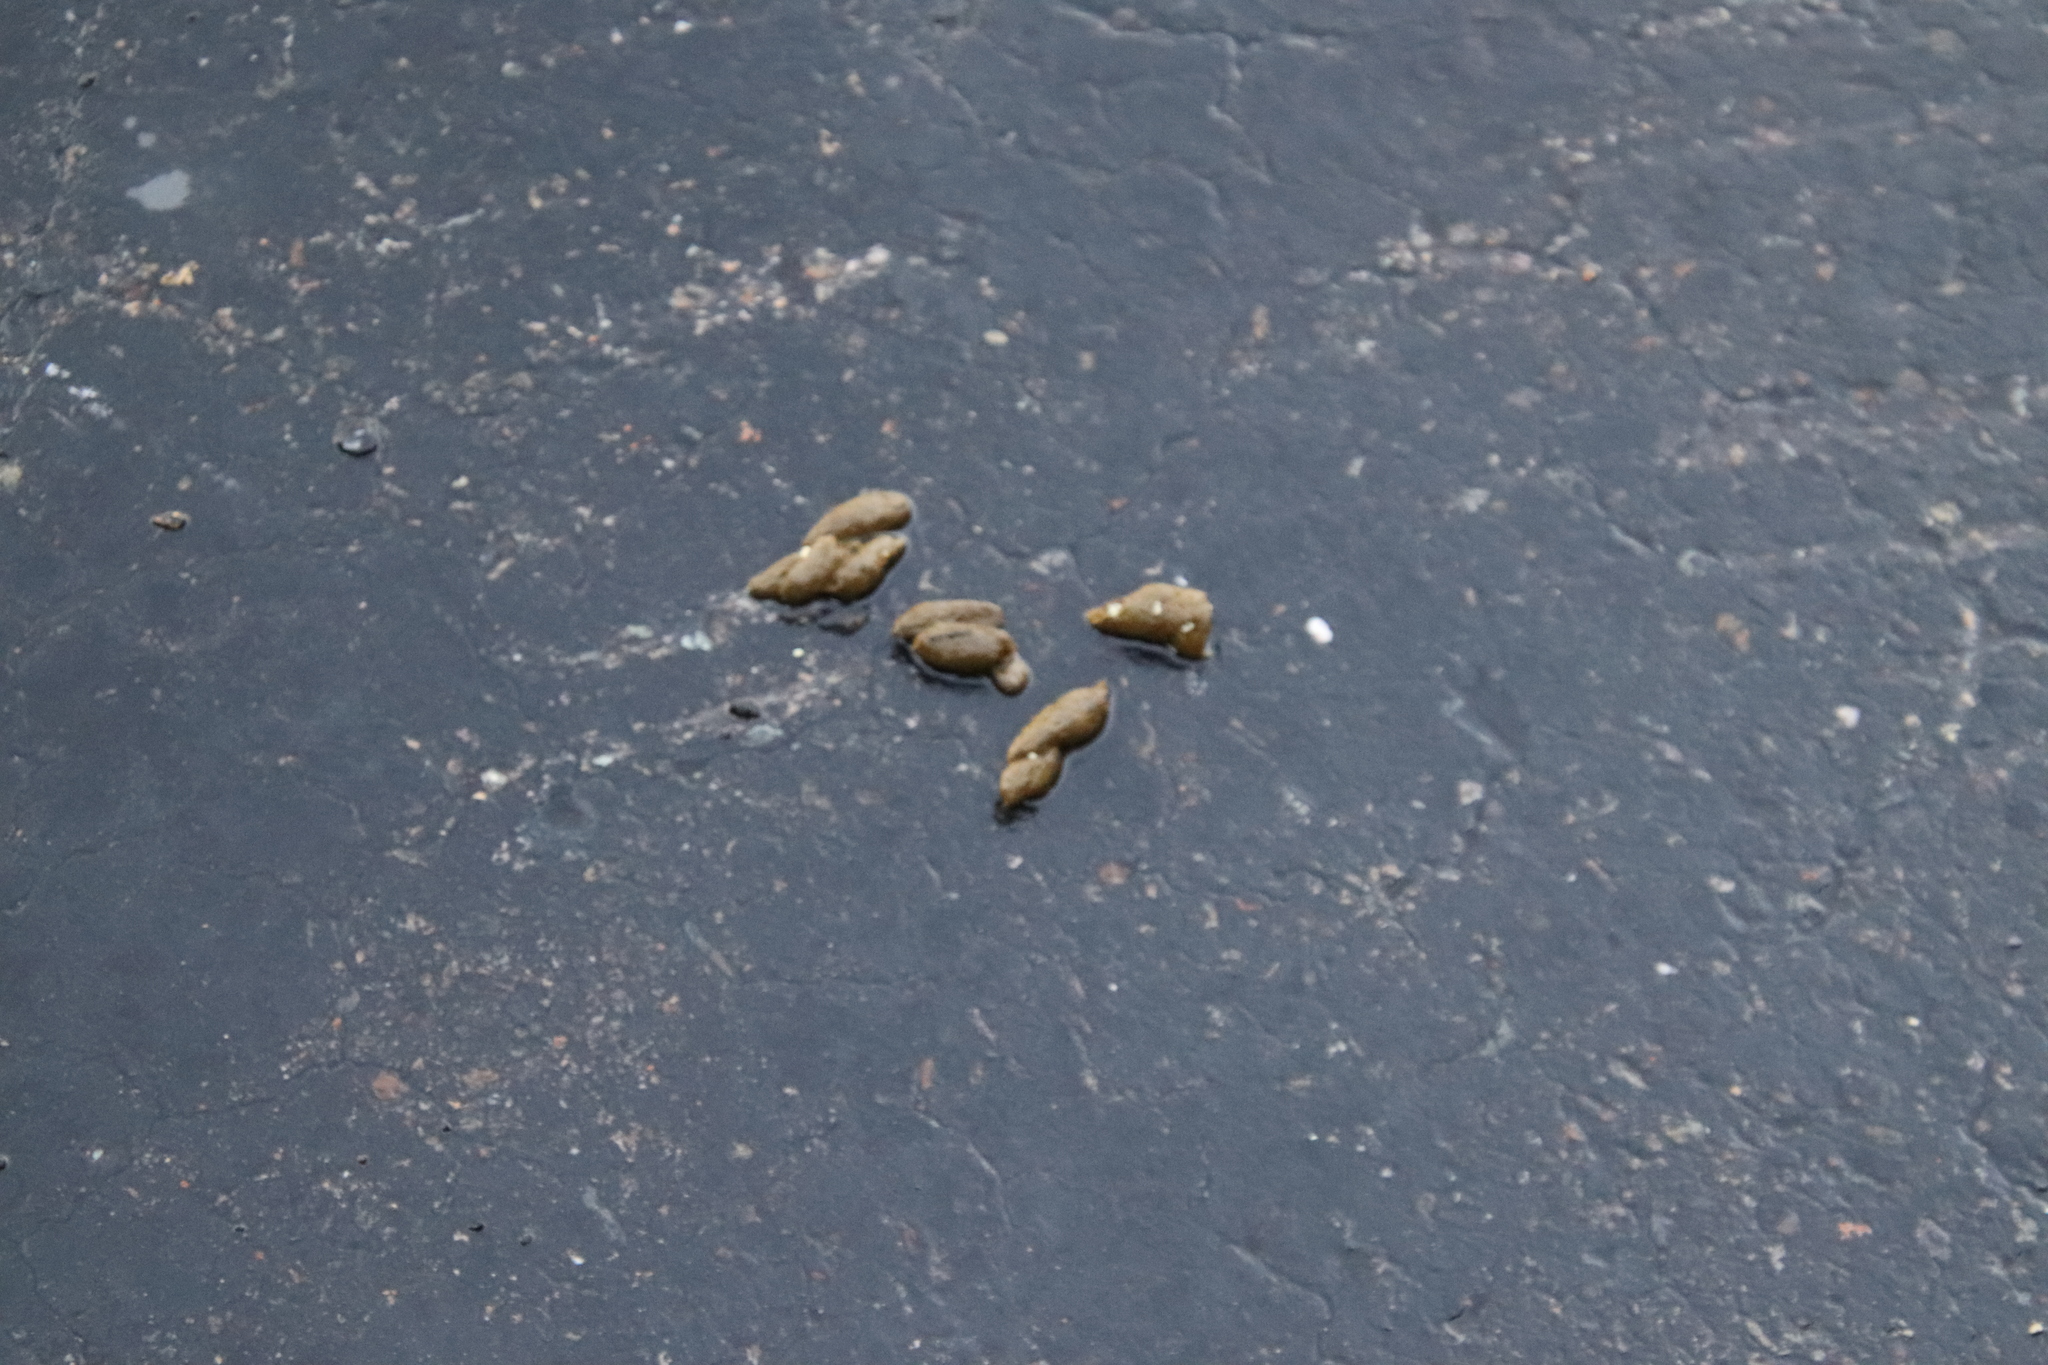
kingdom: Animalia
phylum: Chordata
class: Mammalia
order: Rodentia
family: Sciuridae
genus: Marmota
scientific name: Marmota flaviventris
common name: Yellow-bellied marmot
